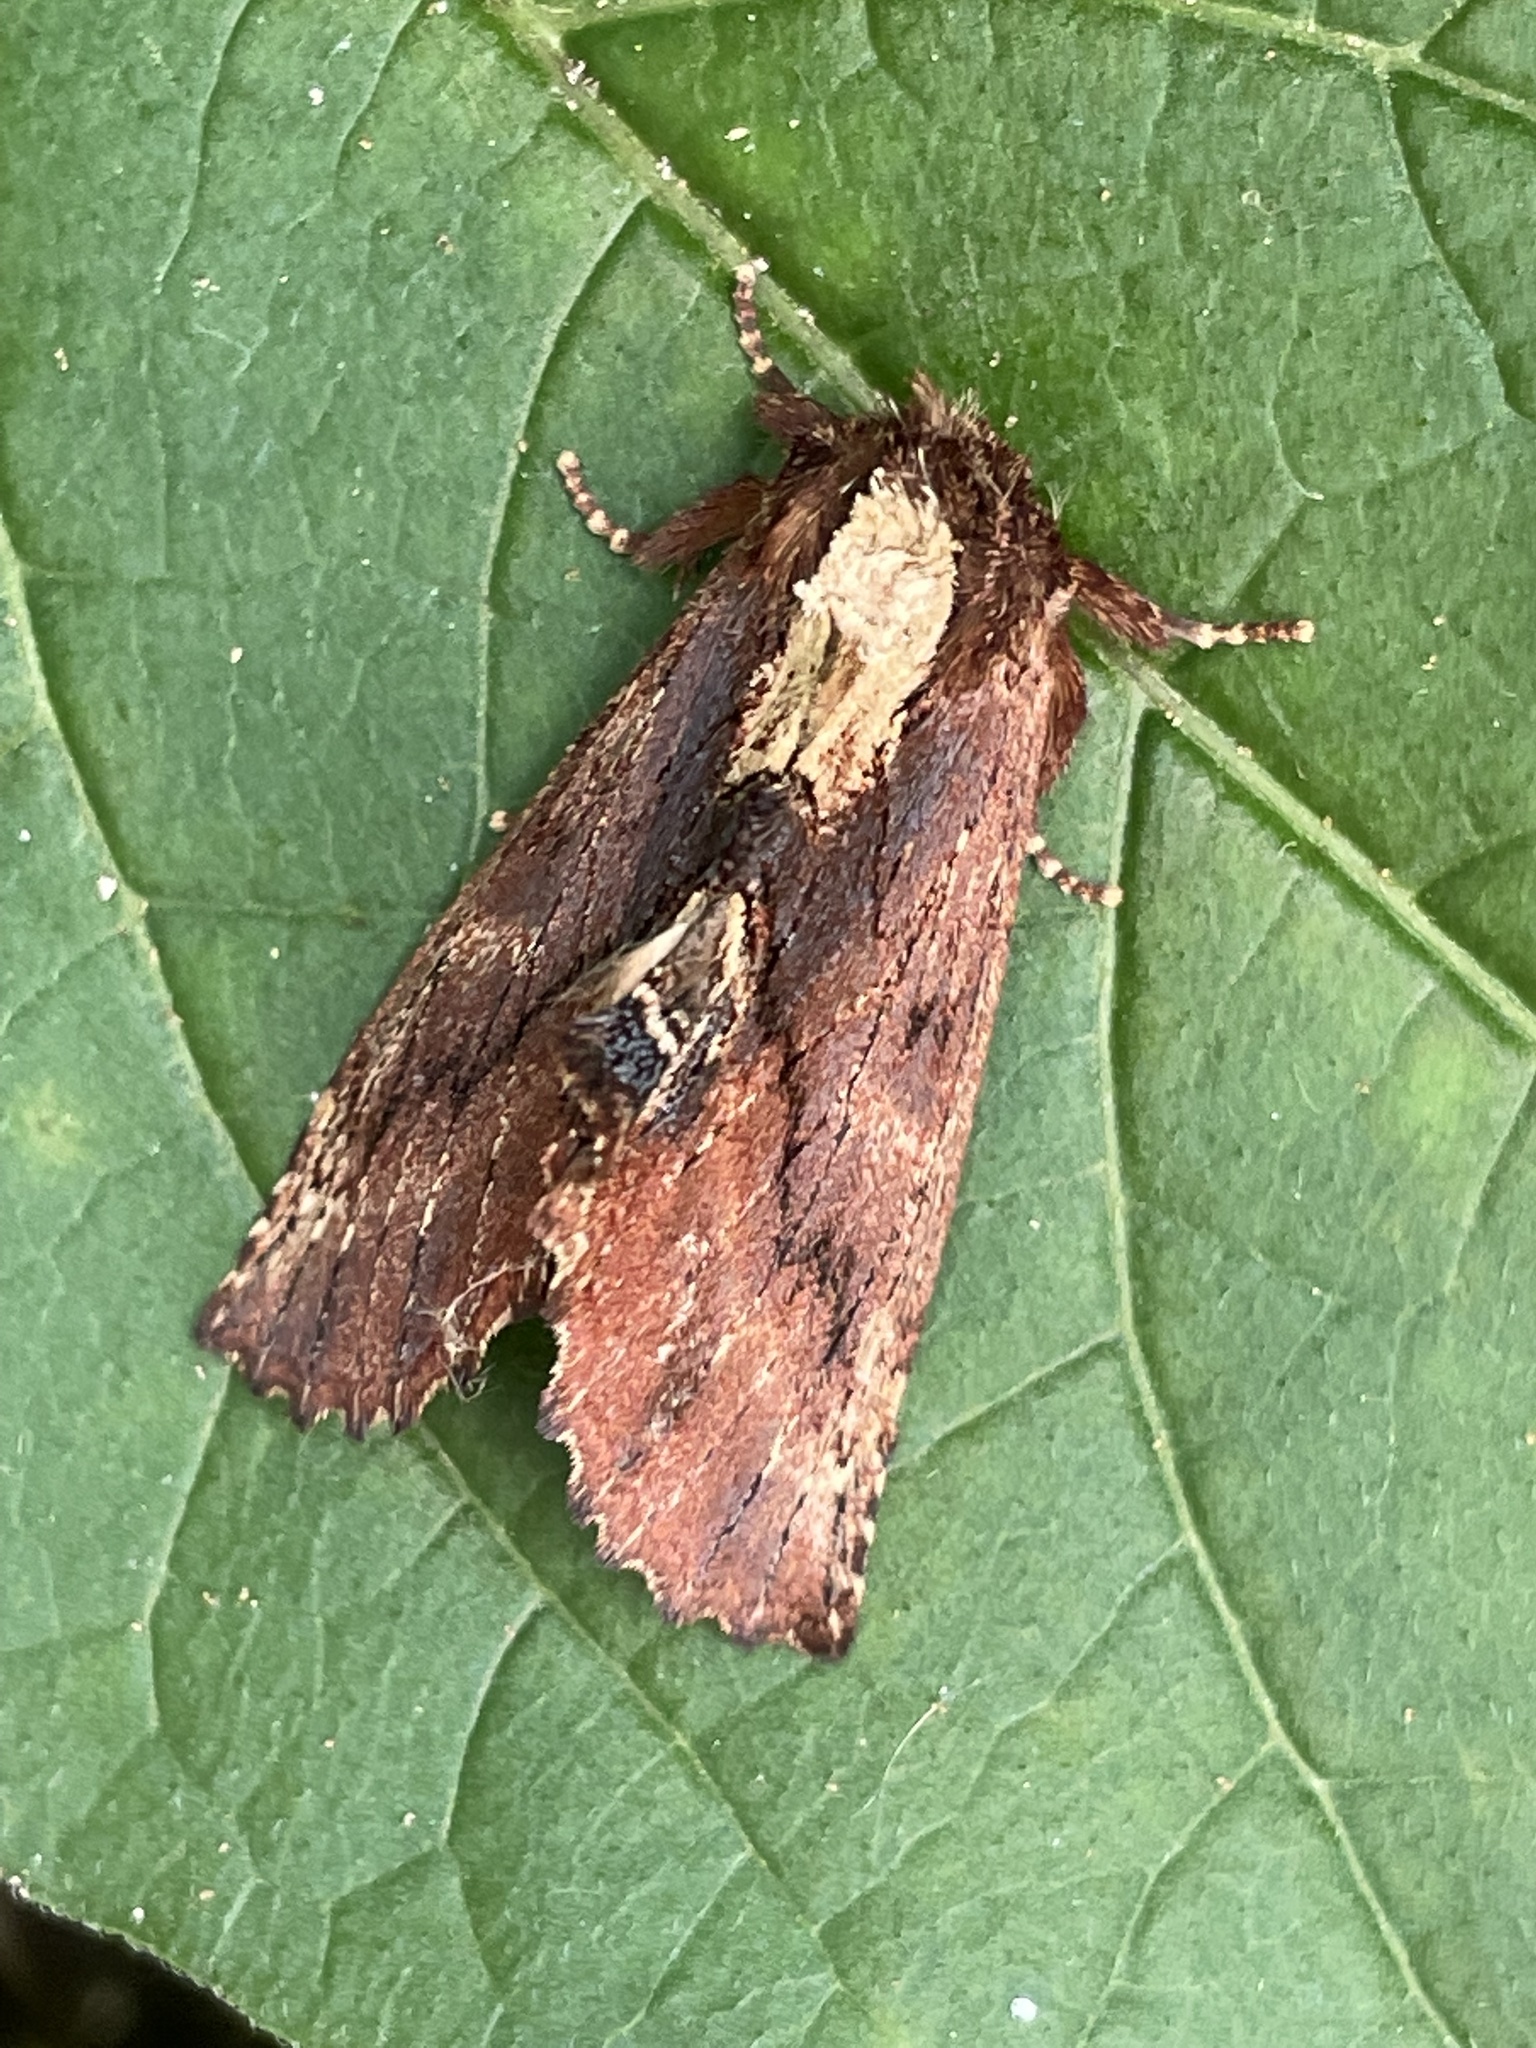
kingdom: Animalia
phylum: Arthropoda
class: Insecta
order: Lepidoptera
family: Notodontidae
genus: Ptilodon
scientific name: Ptilodon capucina
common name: Coxcomb prominent
